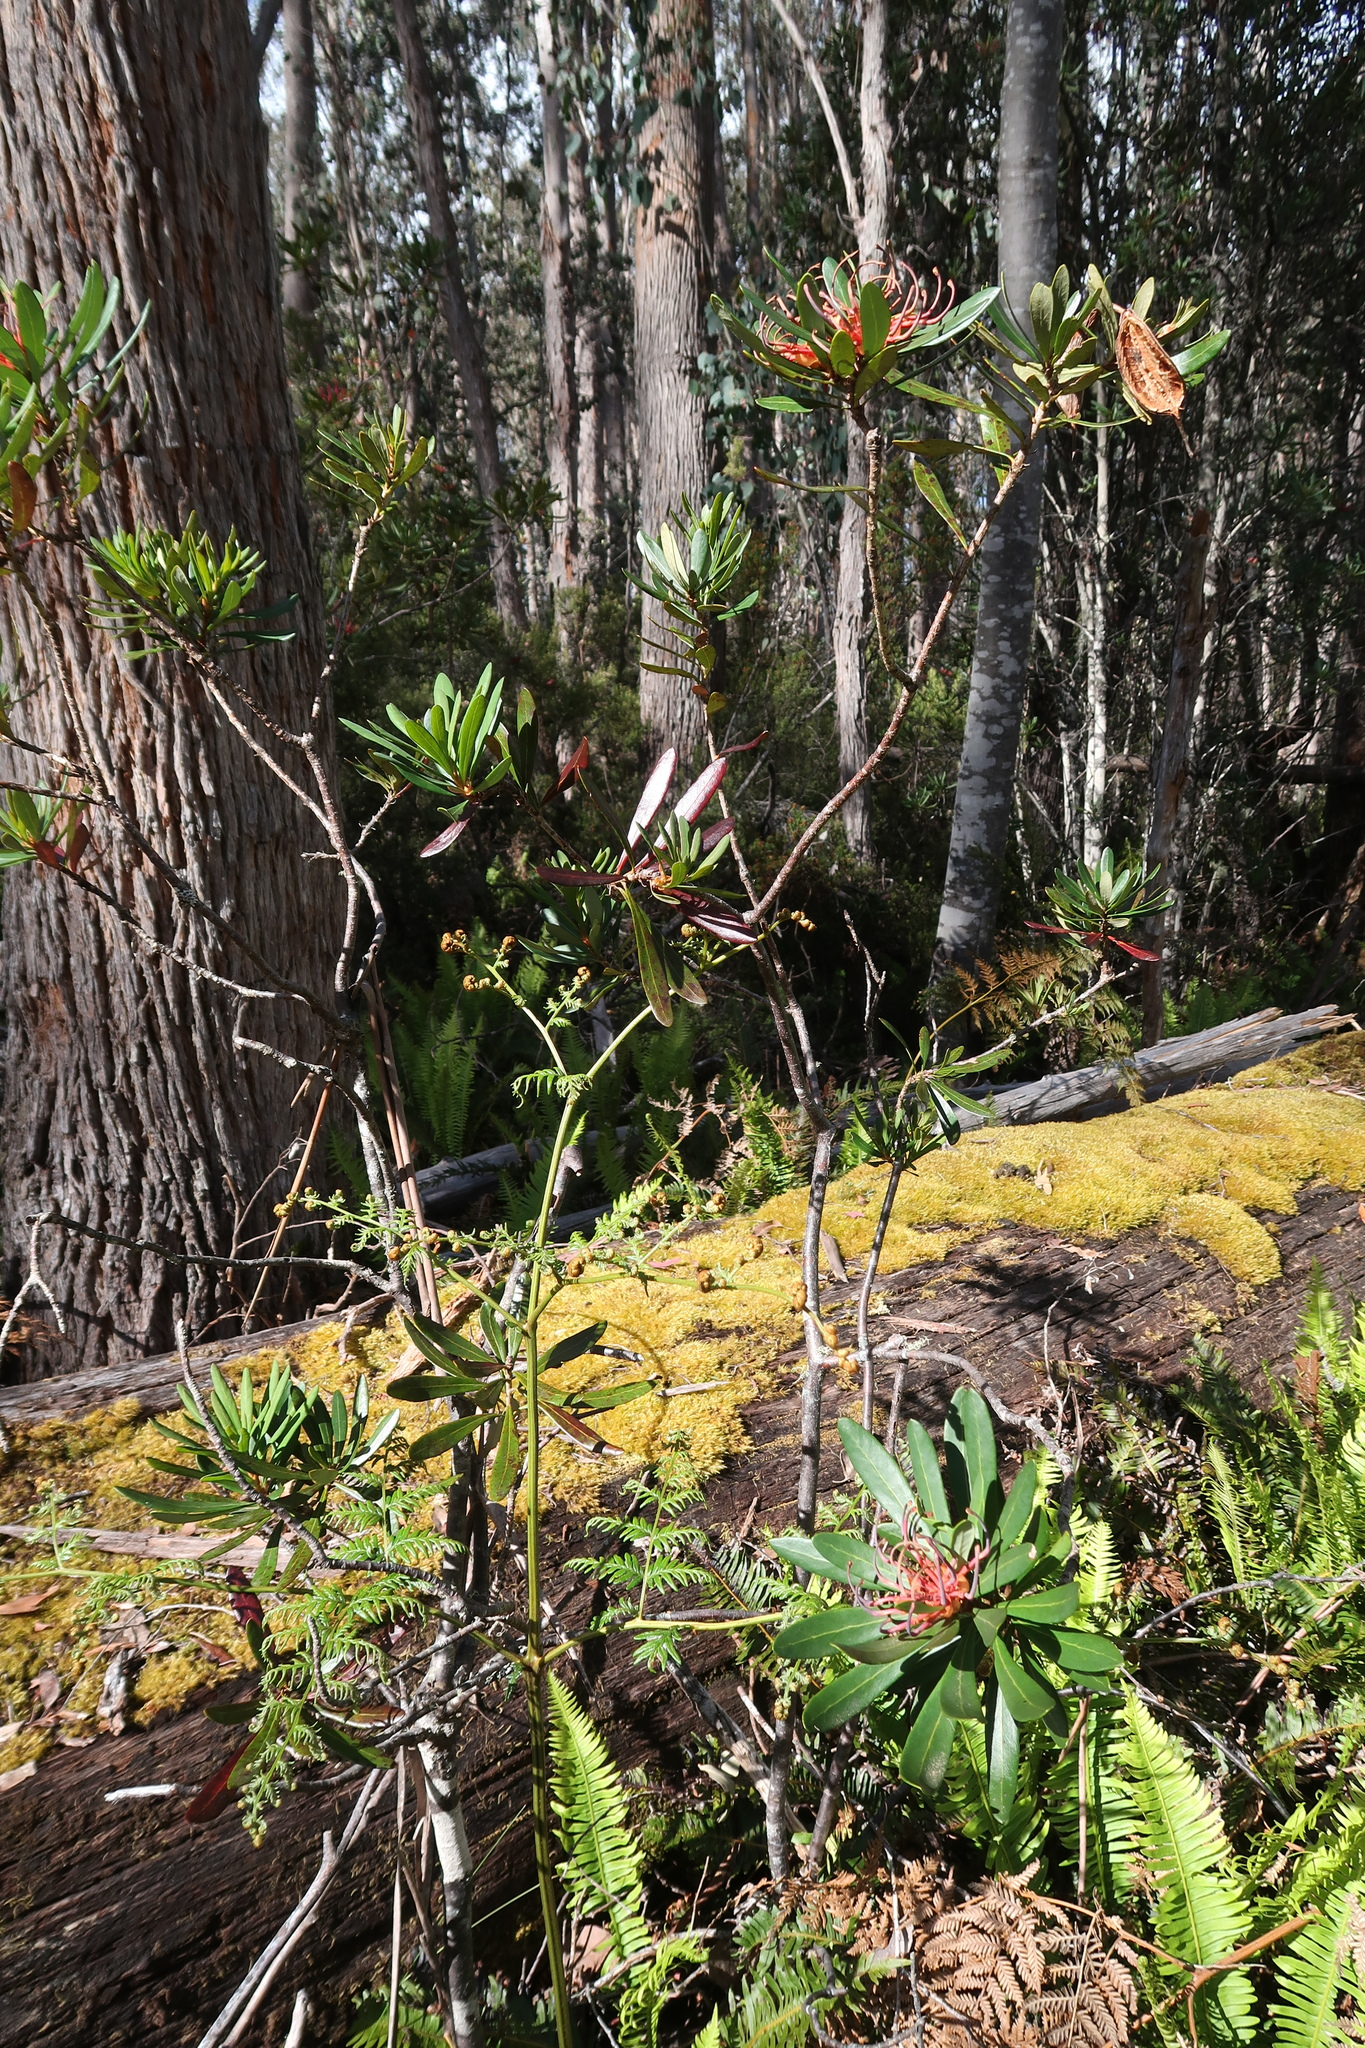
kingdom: Plantae
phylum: Tracheophyta
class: Magnoliopsida
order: Proteales
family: Proteaceae
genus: Telopea
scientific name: Telopea truncata
